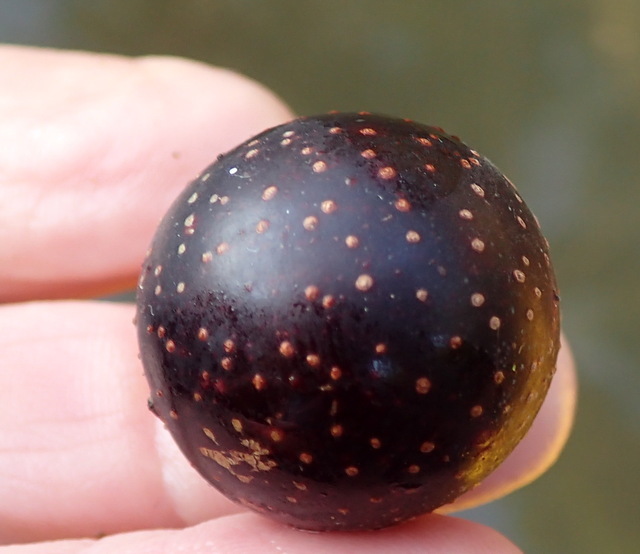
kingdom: Plantae
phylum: Tracheophyta
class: Magnoliopsida
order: Vitales
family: Vitaceae
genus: Vitis
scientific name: Vitis rotundifolia
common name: Muscadine grape
